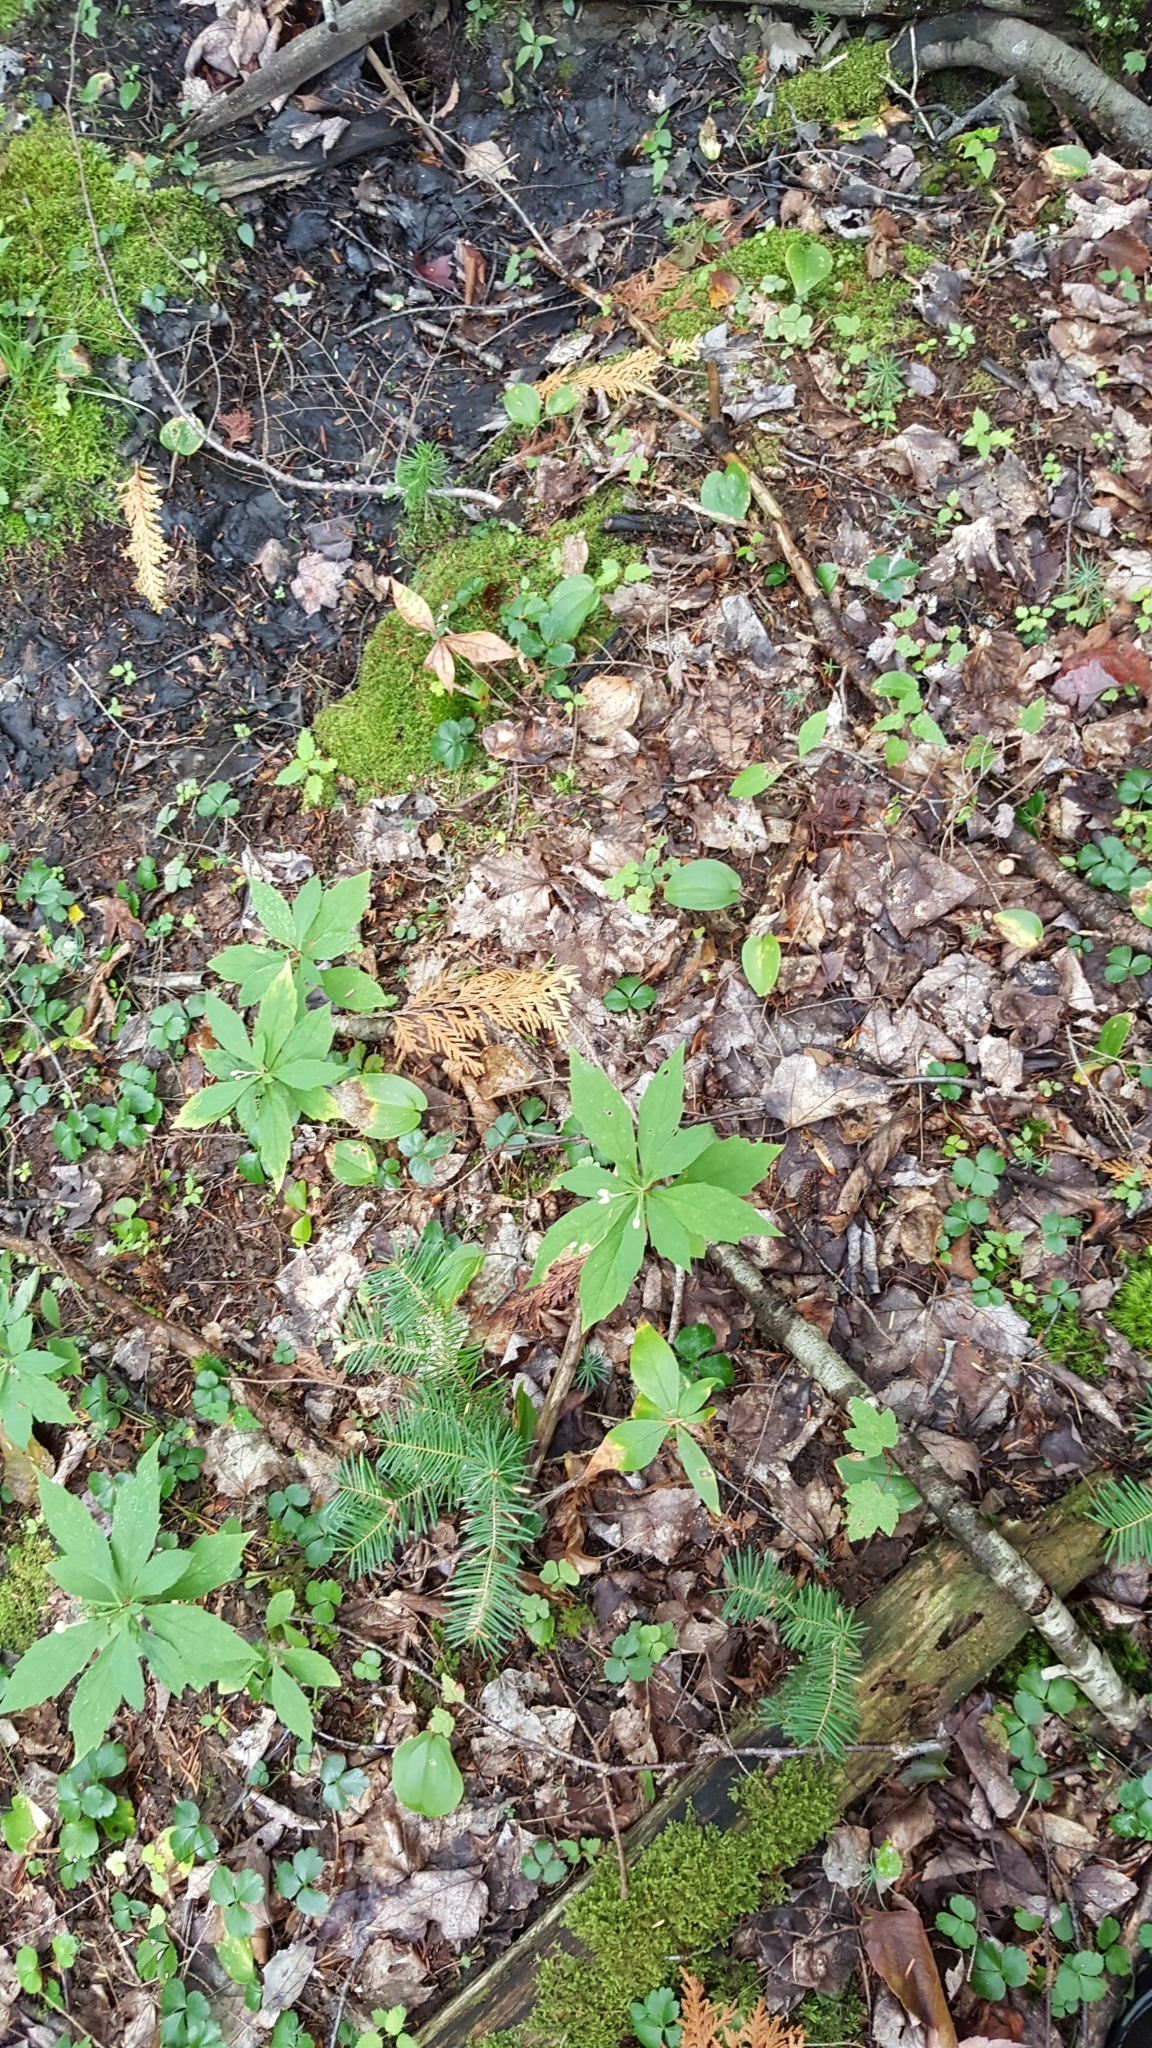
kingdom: Plantae
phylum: Tracheophyta
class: Magnoliopsida
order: Asterales
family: Asteraceae
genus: Oclemena
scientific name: Oclemena acuminata
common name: Mountain aster
